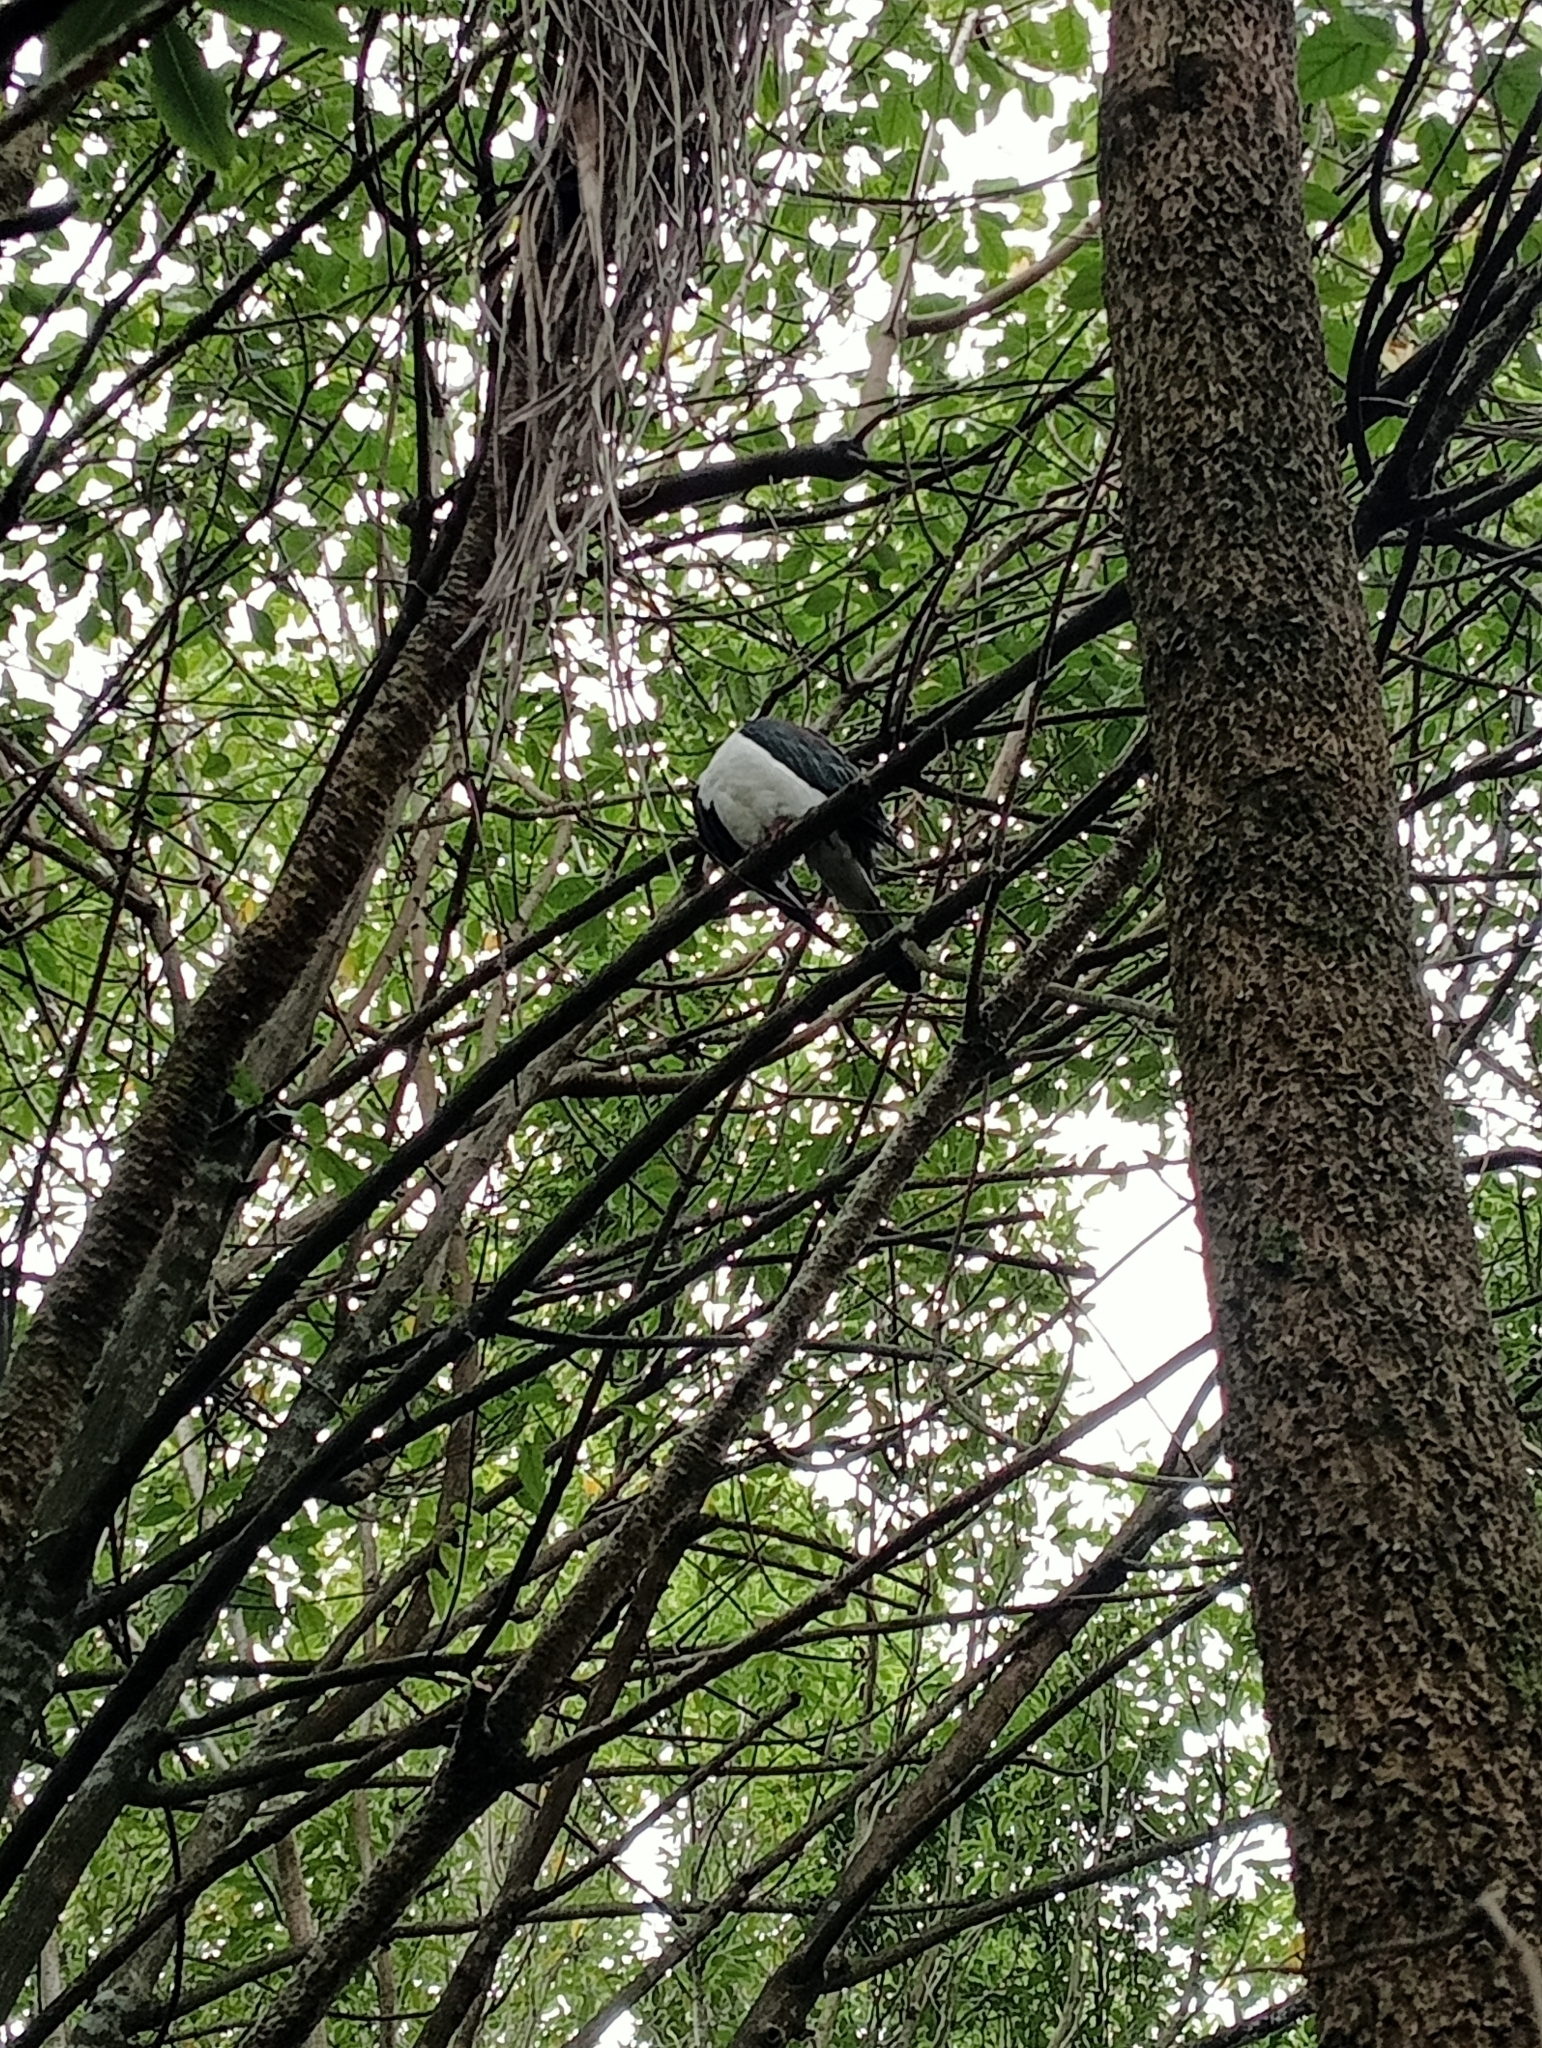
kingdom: Animalia
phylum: Chordata
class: Aves
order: Columbiformes
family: Columbidae
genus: Hemiphaga
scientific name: Hemiphaga novaeseelandiae
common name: New zealand pigeon
